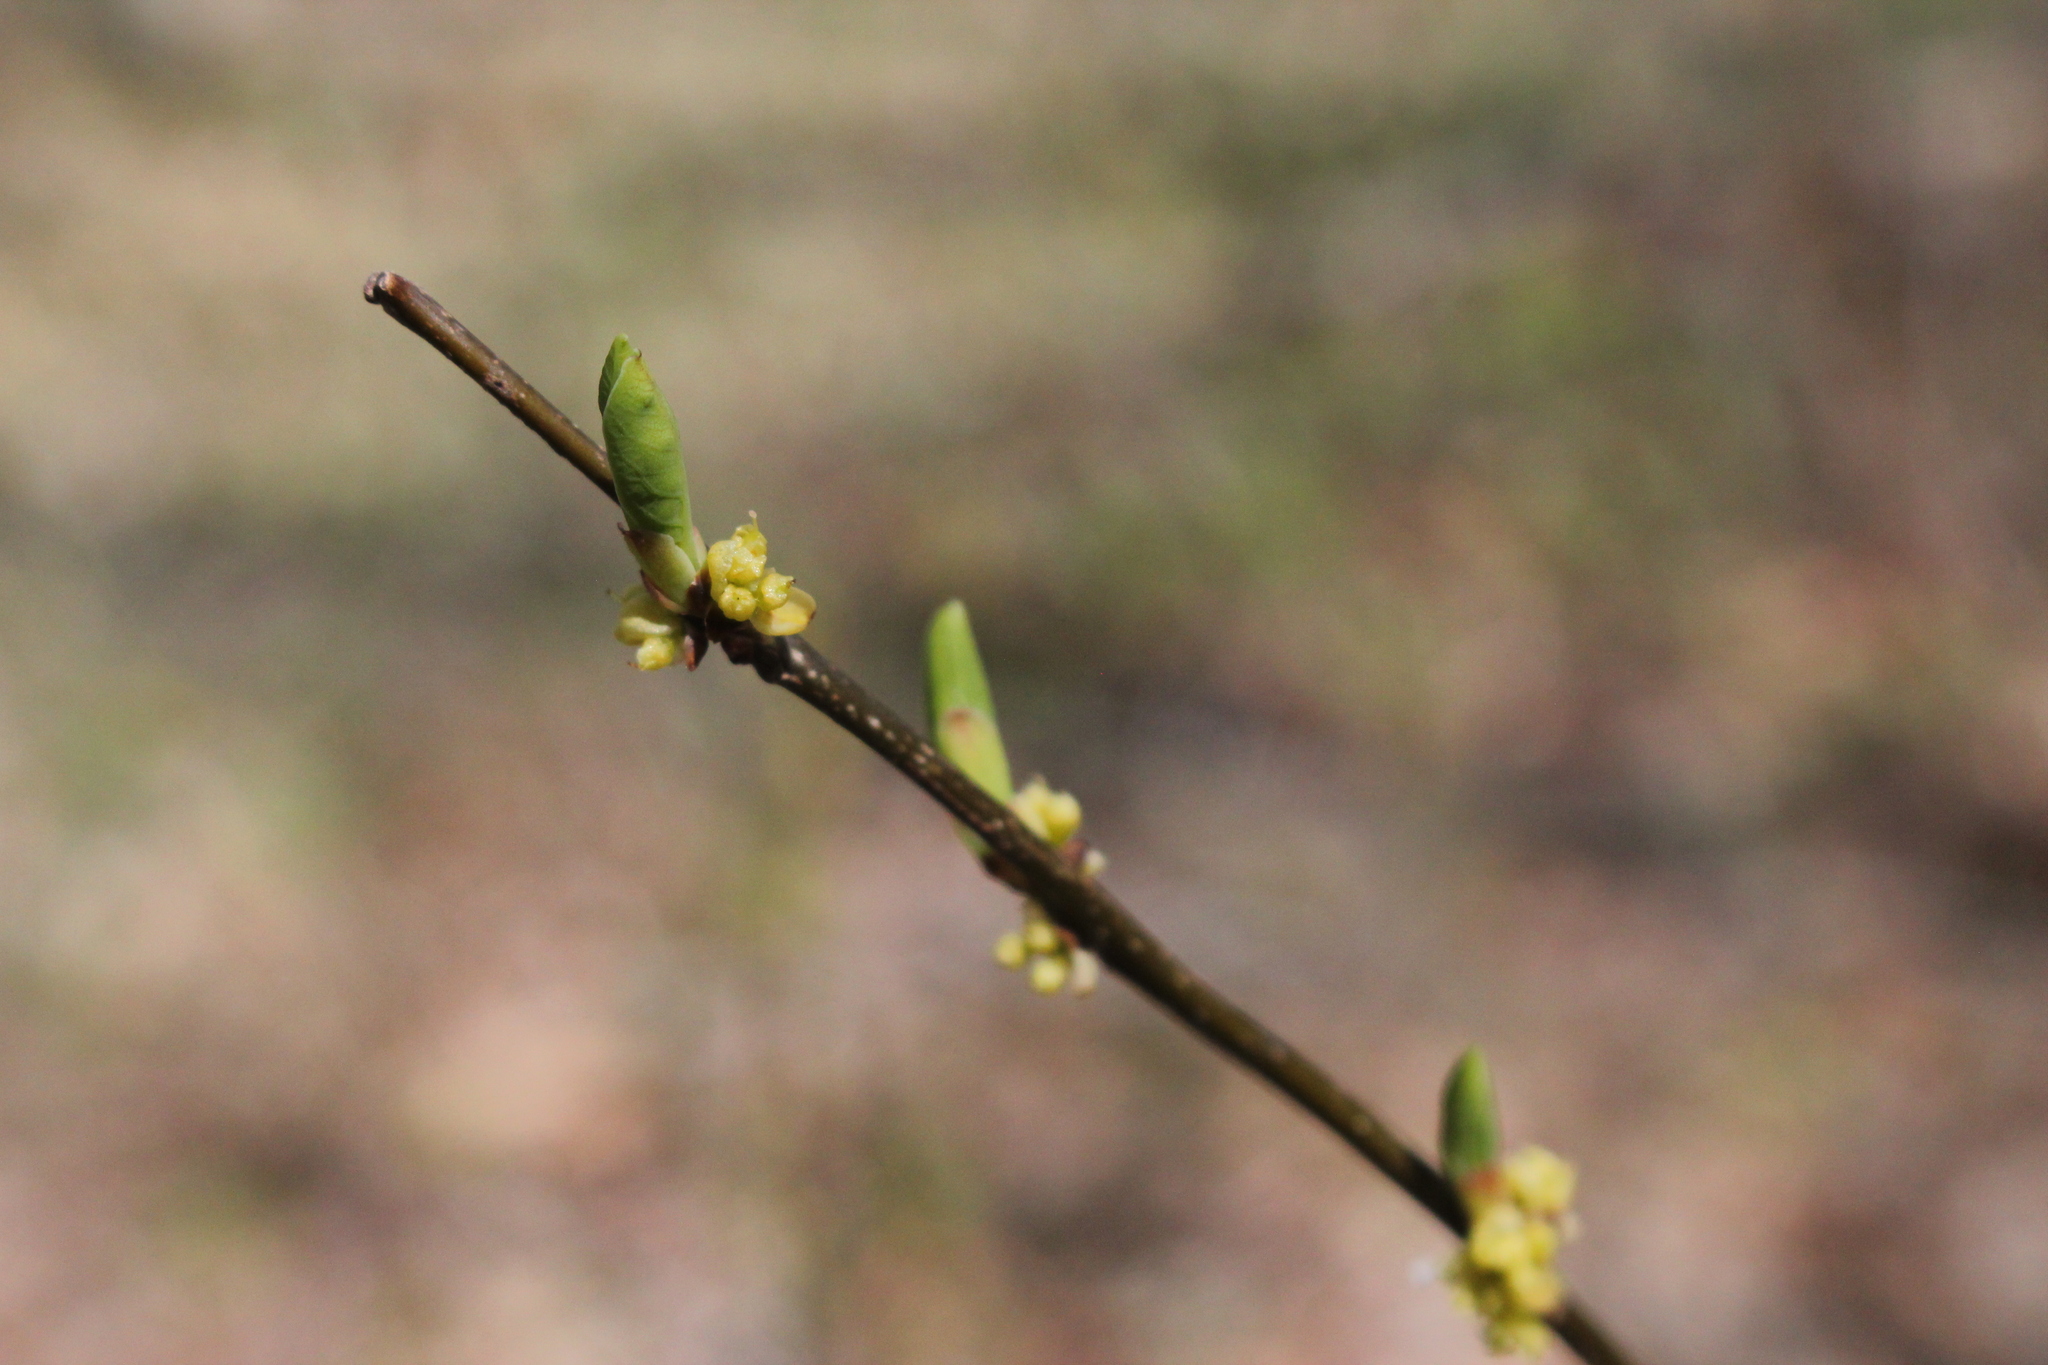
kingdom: Plantae
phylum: Tracheophyta
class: Magnoliopsida
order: Laurales
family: Lauraceae
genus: Lindera
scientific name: Lindera benzoin
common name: Spicebush
